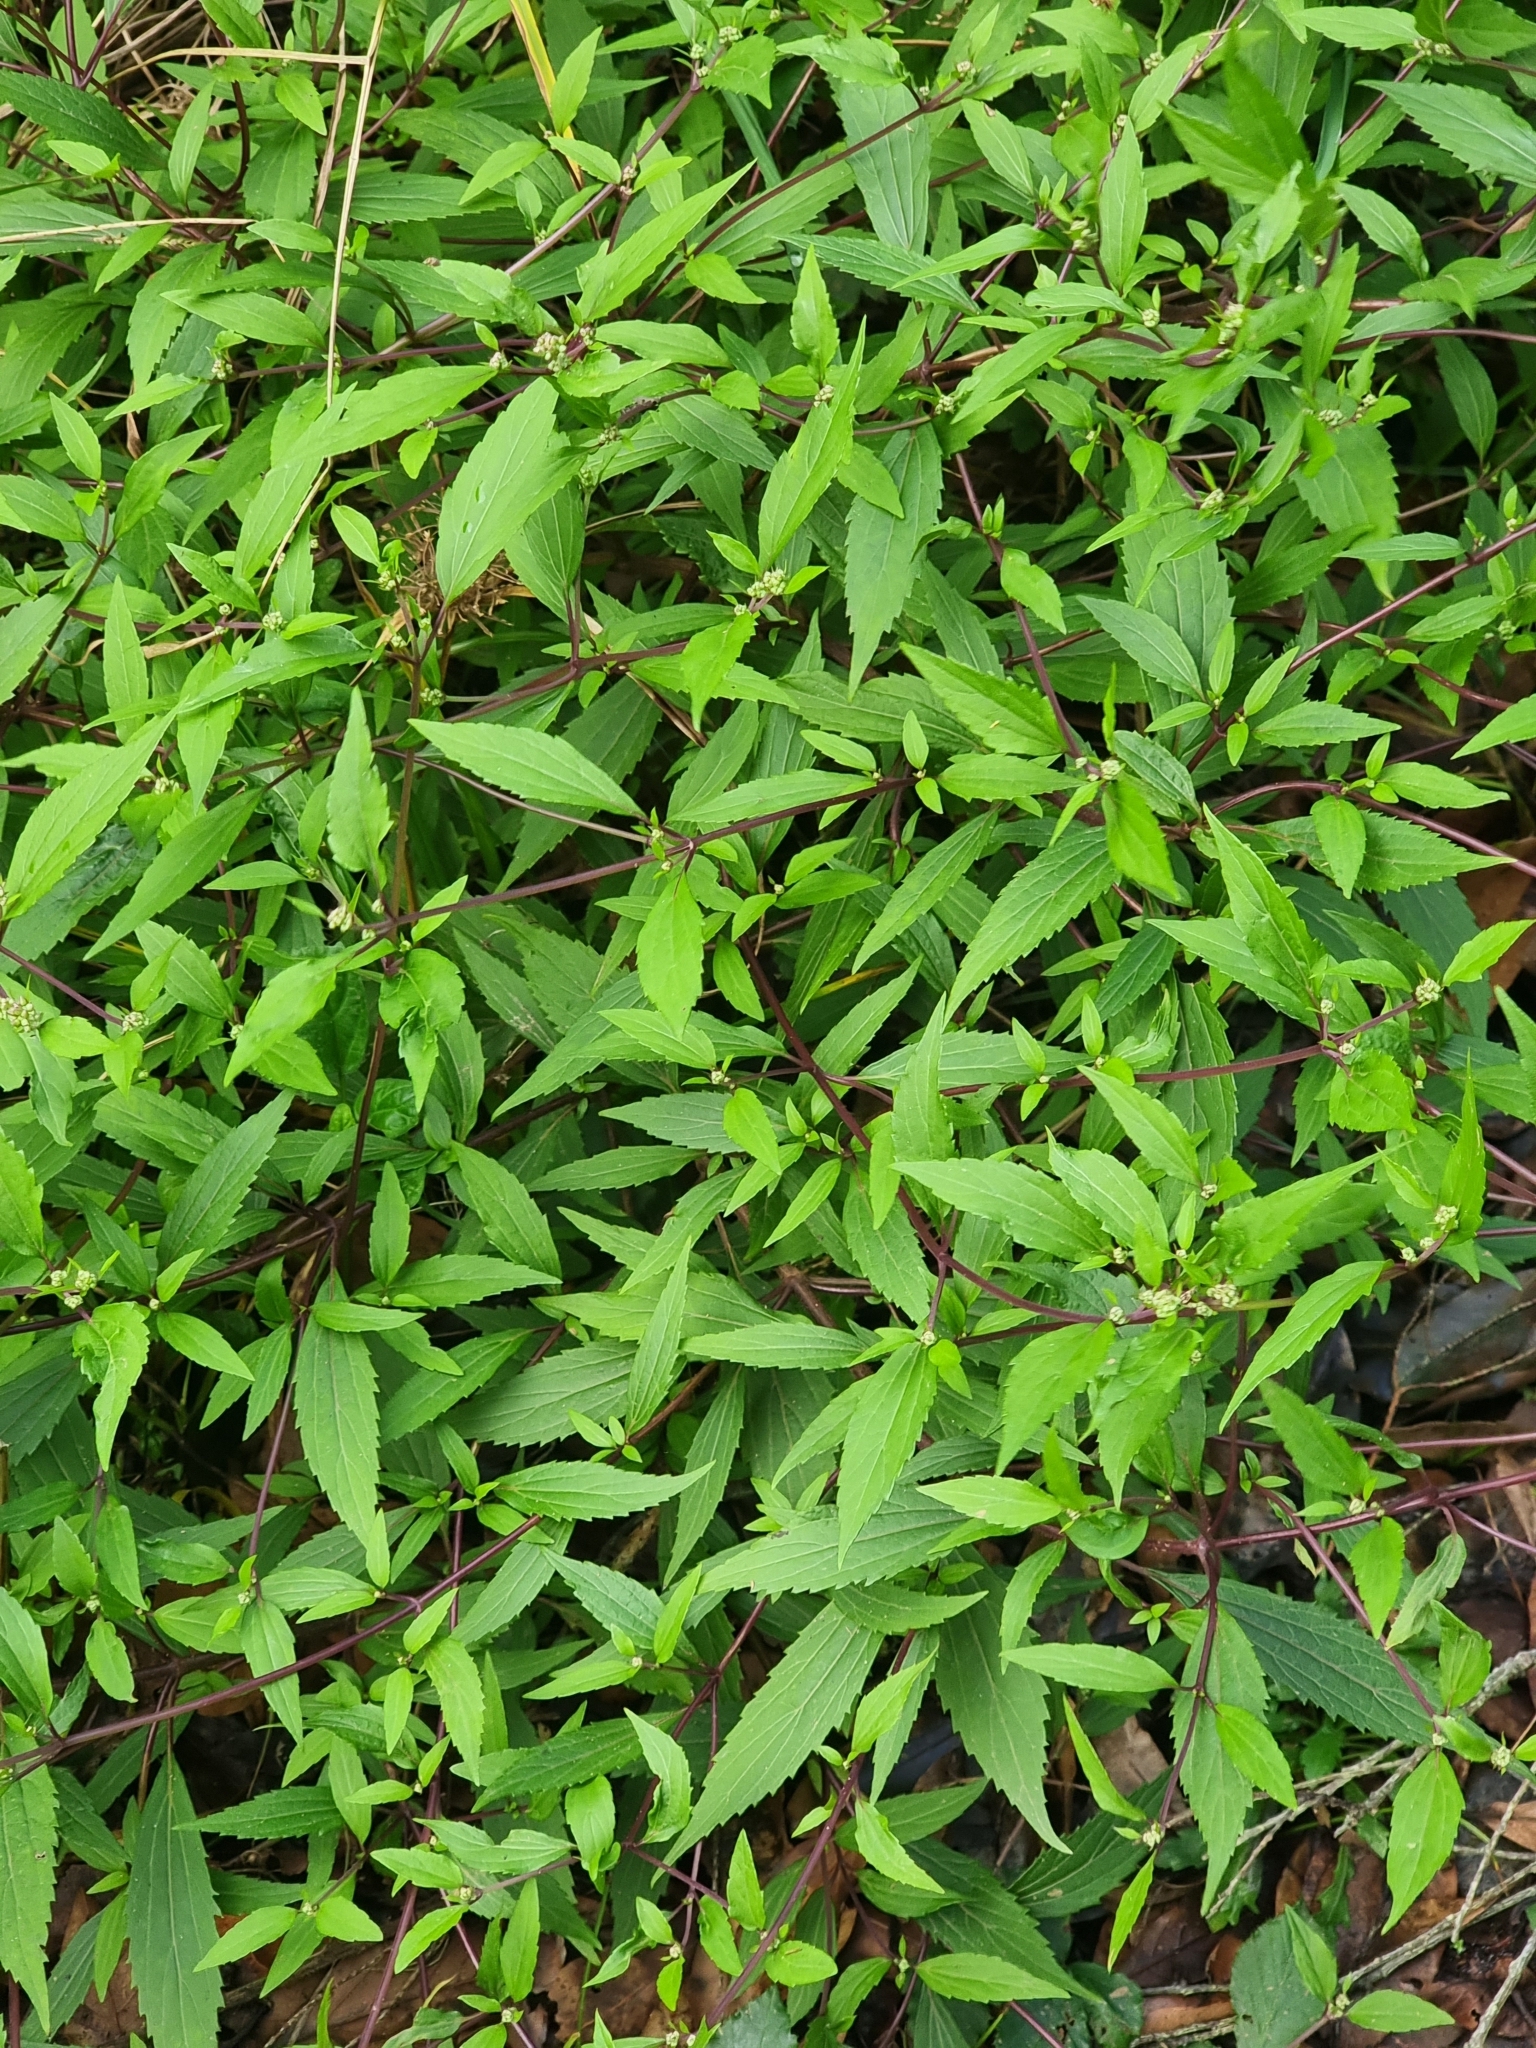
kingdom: Plantae
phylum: Tracheophyta
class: Magnoliopsida
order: Asterales
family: Asteraceae
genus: Ageratina
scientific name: Ageratina riparia
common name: Creeping croftonweed
